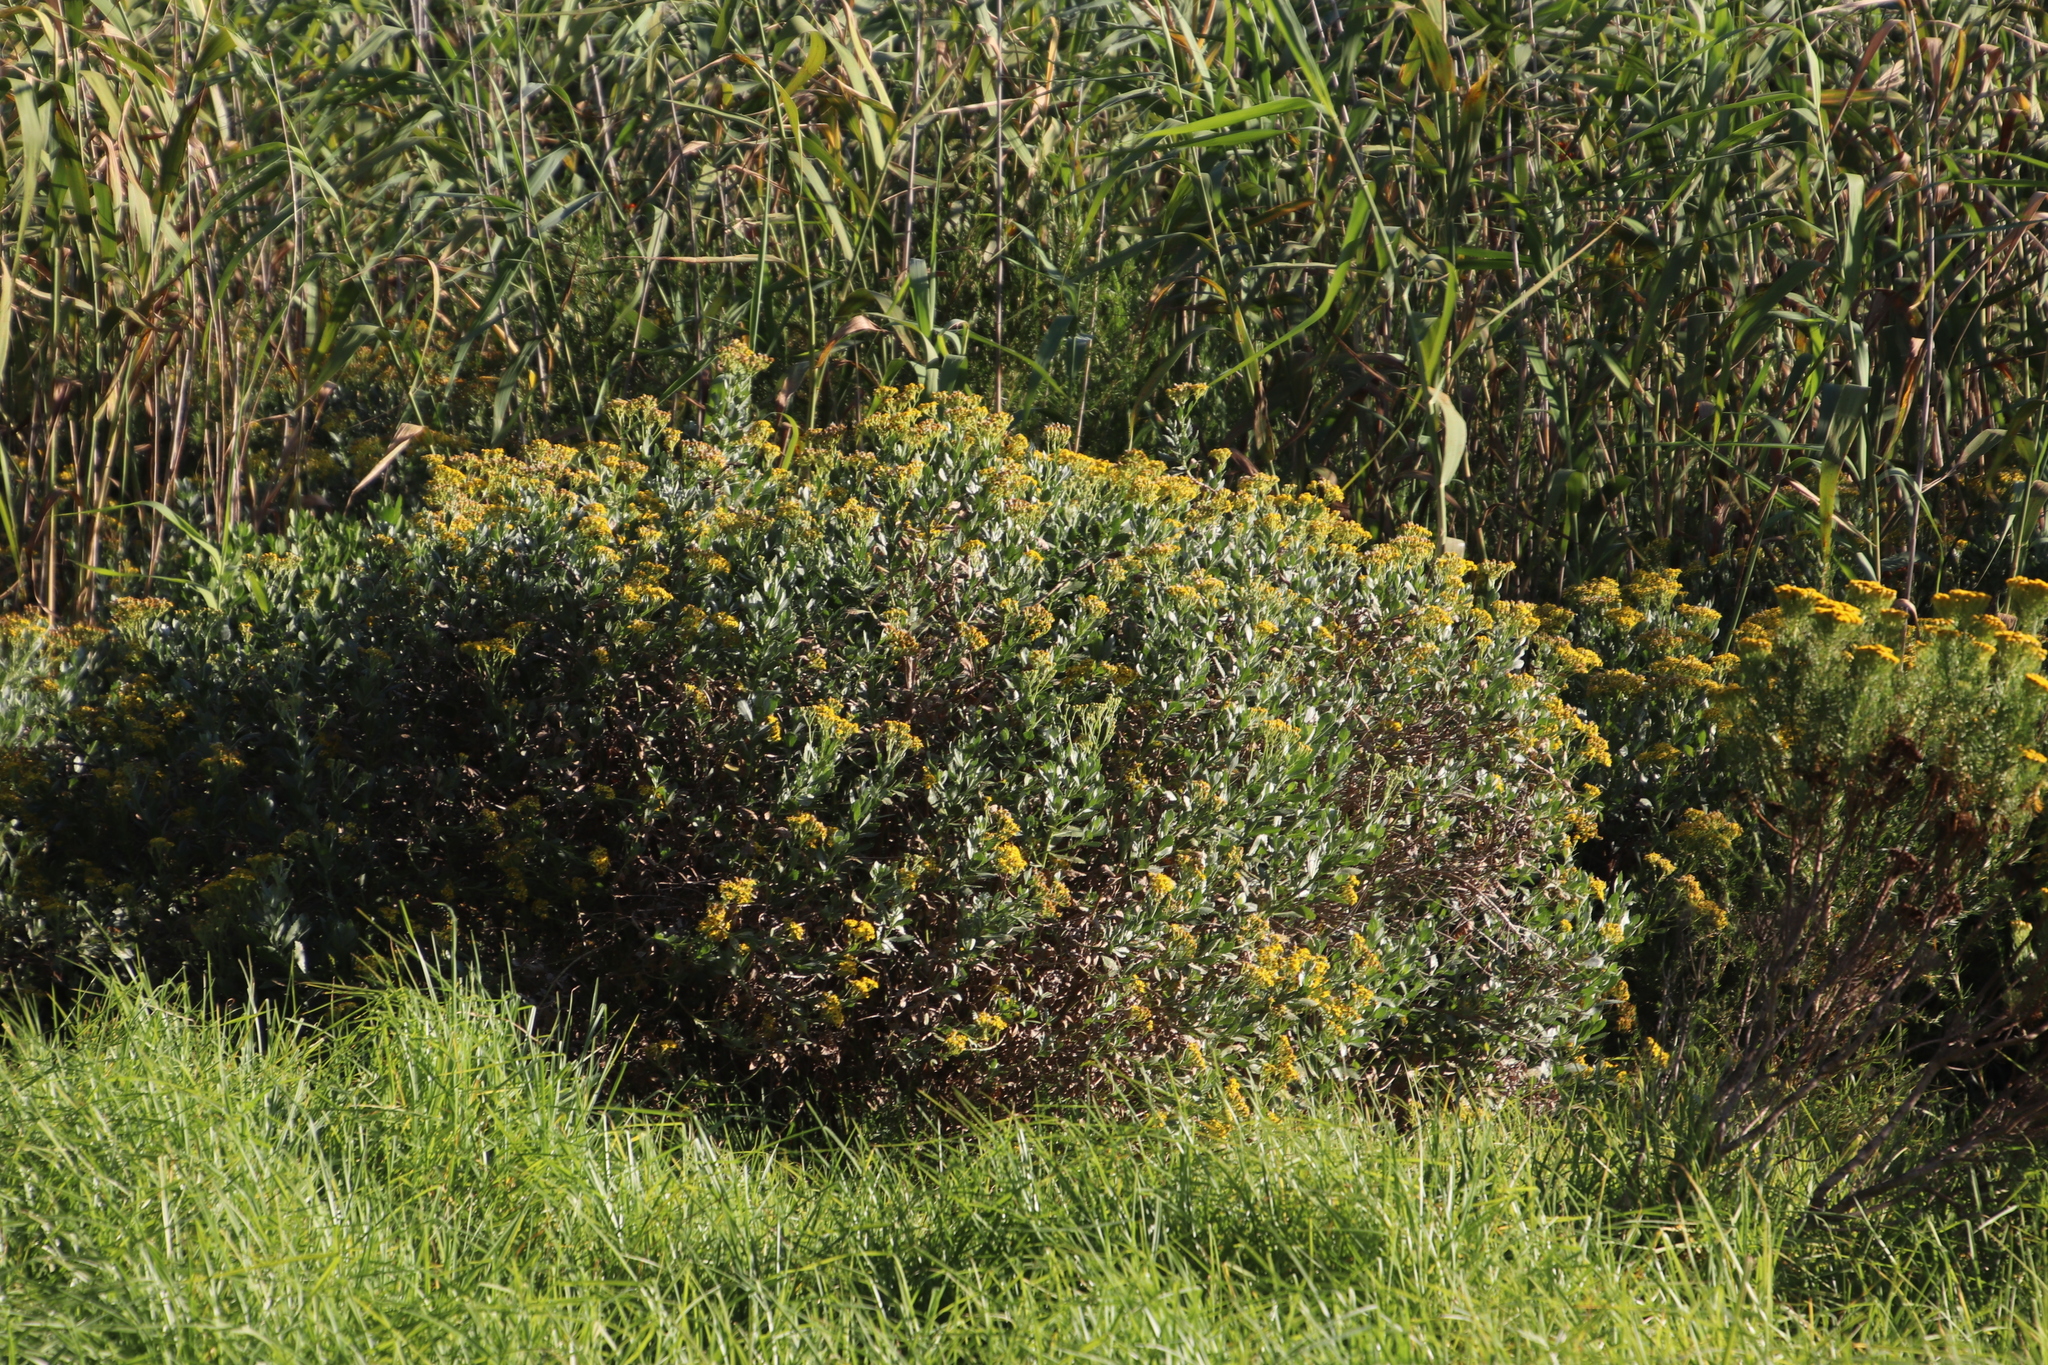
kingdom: Plantae
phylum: Tracheophyta
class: Magnoliopsida
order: Asterales
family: Asteraceae
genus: Senecio
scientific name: Senecio halimifolius
